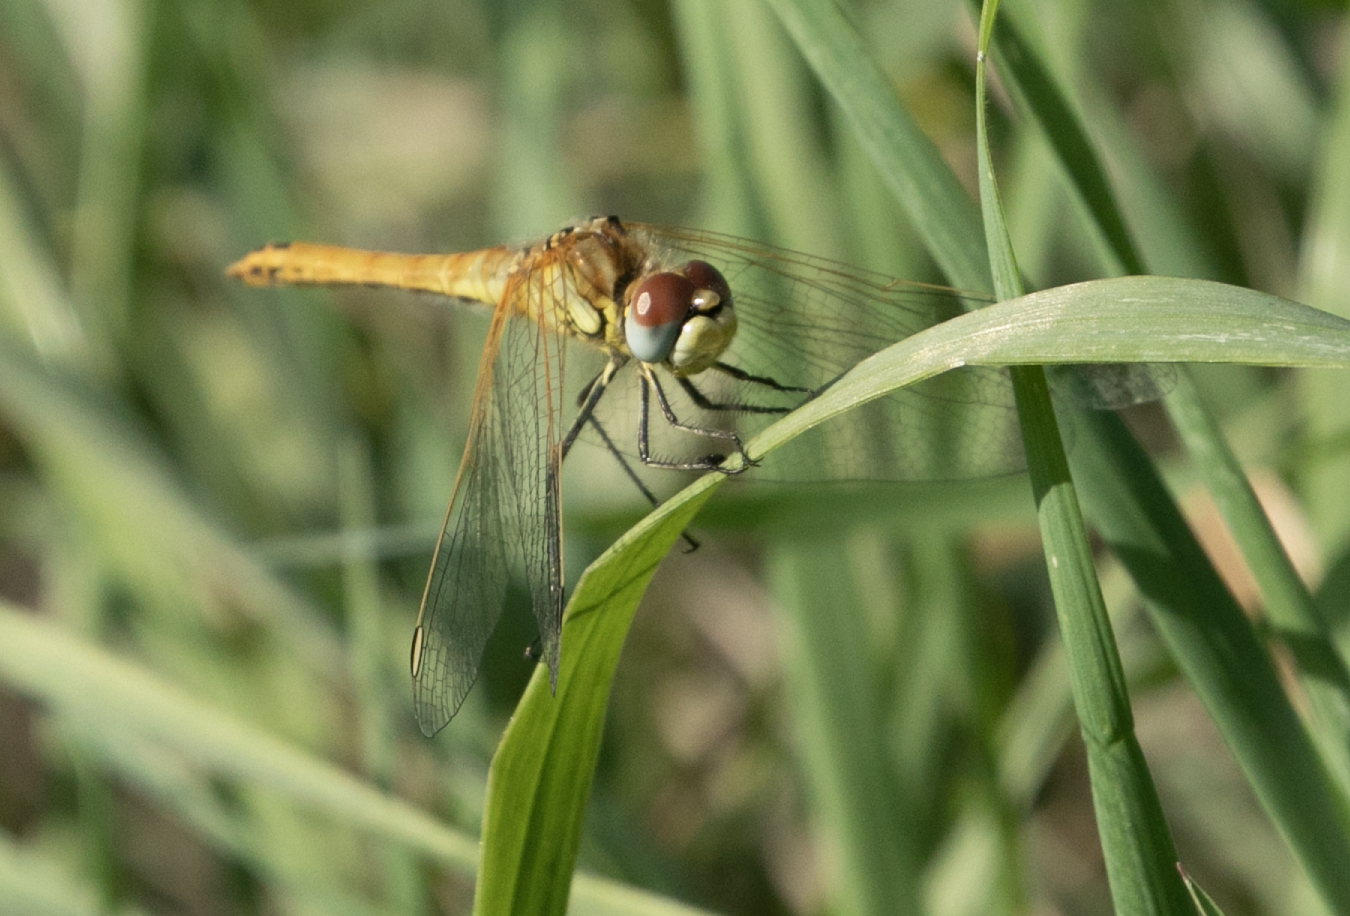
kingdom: Animalia
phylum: Arthropoda
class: Insecta
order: Odonata
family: Libellulidae
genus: Sympetrum
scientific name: Sympetrum fonscolombii
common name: Red-veined darter
